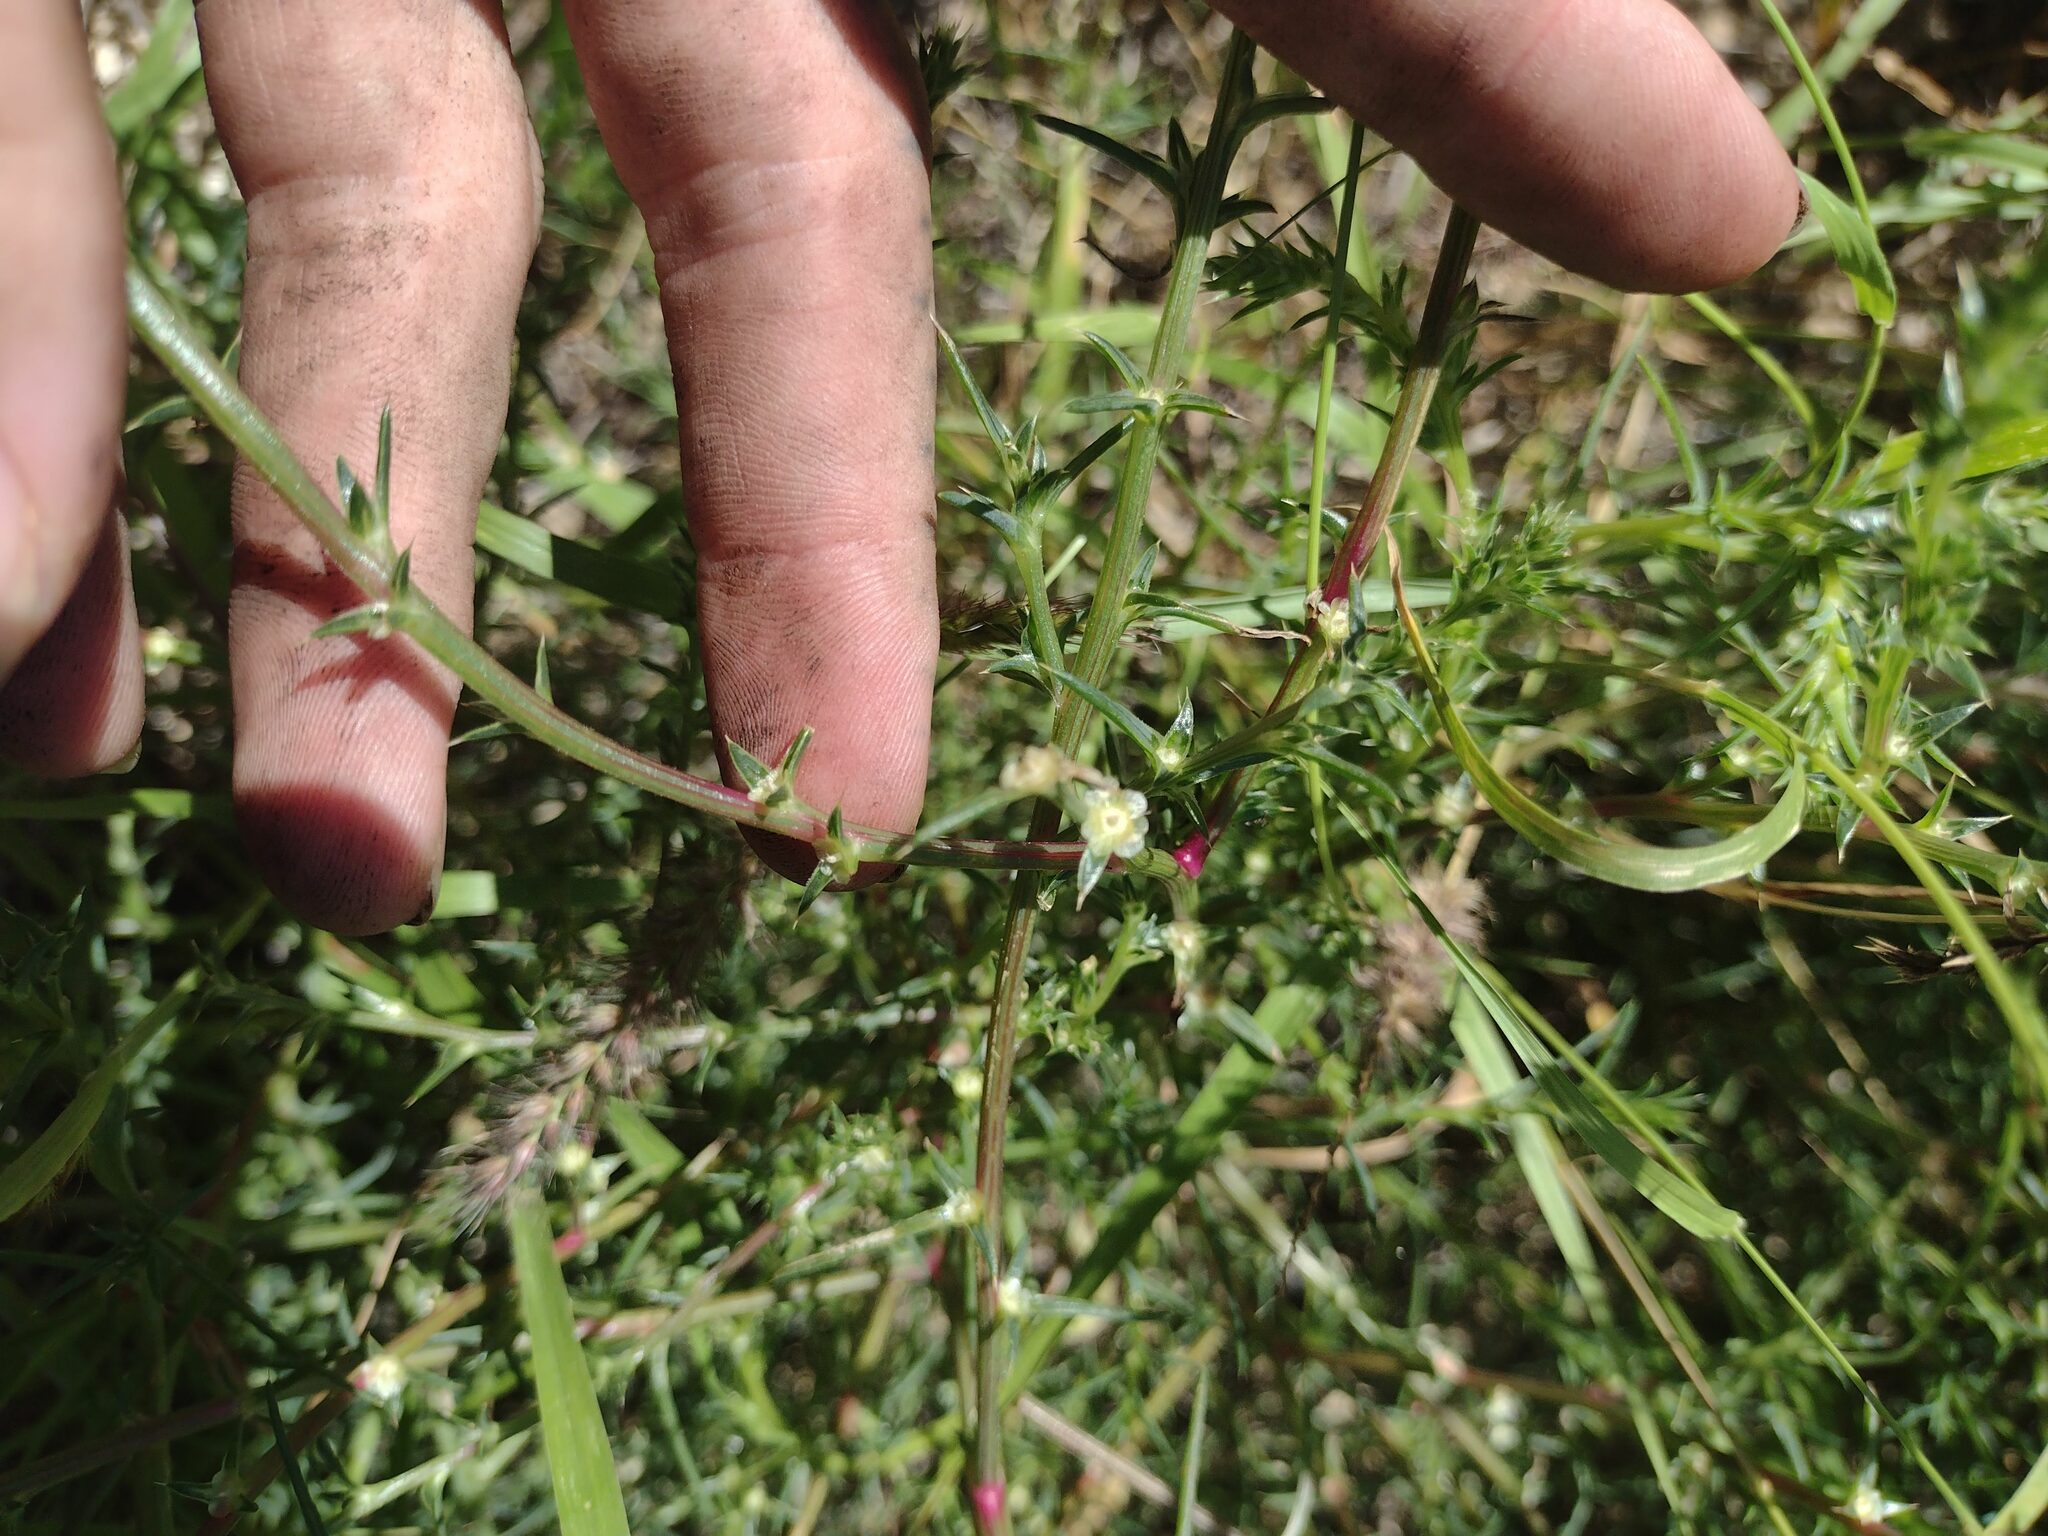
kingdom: Plantae
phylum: Tracheophyta
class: Magnoliopsida
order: Caryophyllales
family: Amaranthaceae
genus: Salsola
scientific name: Salsola tragus
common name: Prickly russian thistle
